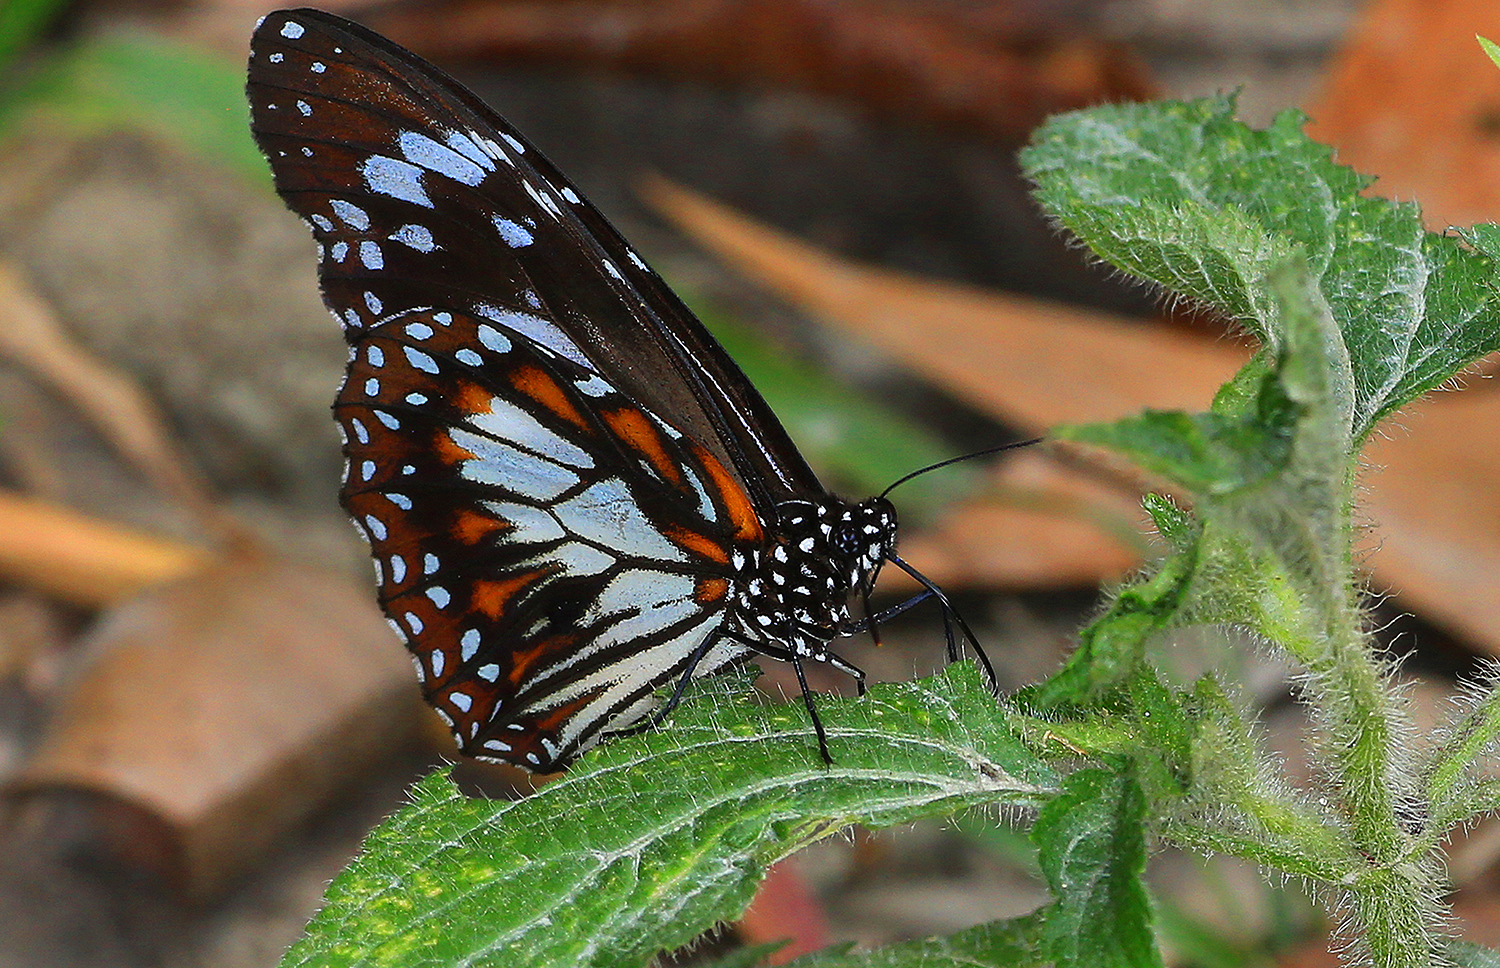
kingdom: Animalia
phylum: Arthropoda
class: Insecta
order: Lepidoptera
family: Nymphalidae
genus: Danaus
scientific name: Danaus affinis
